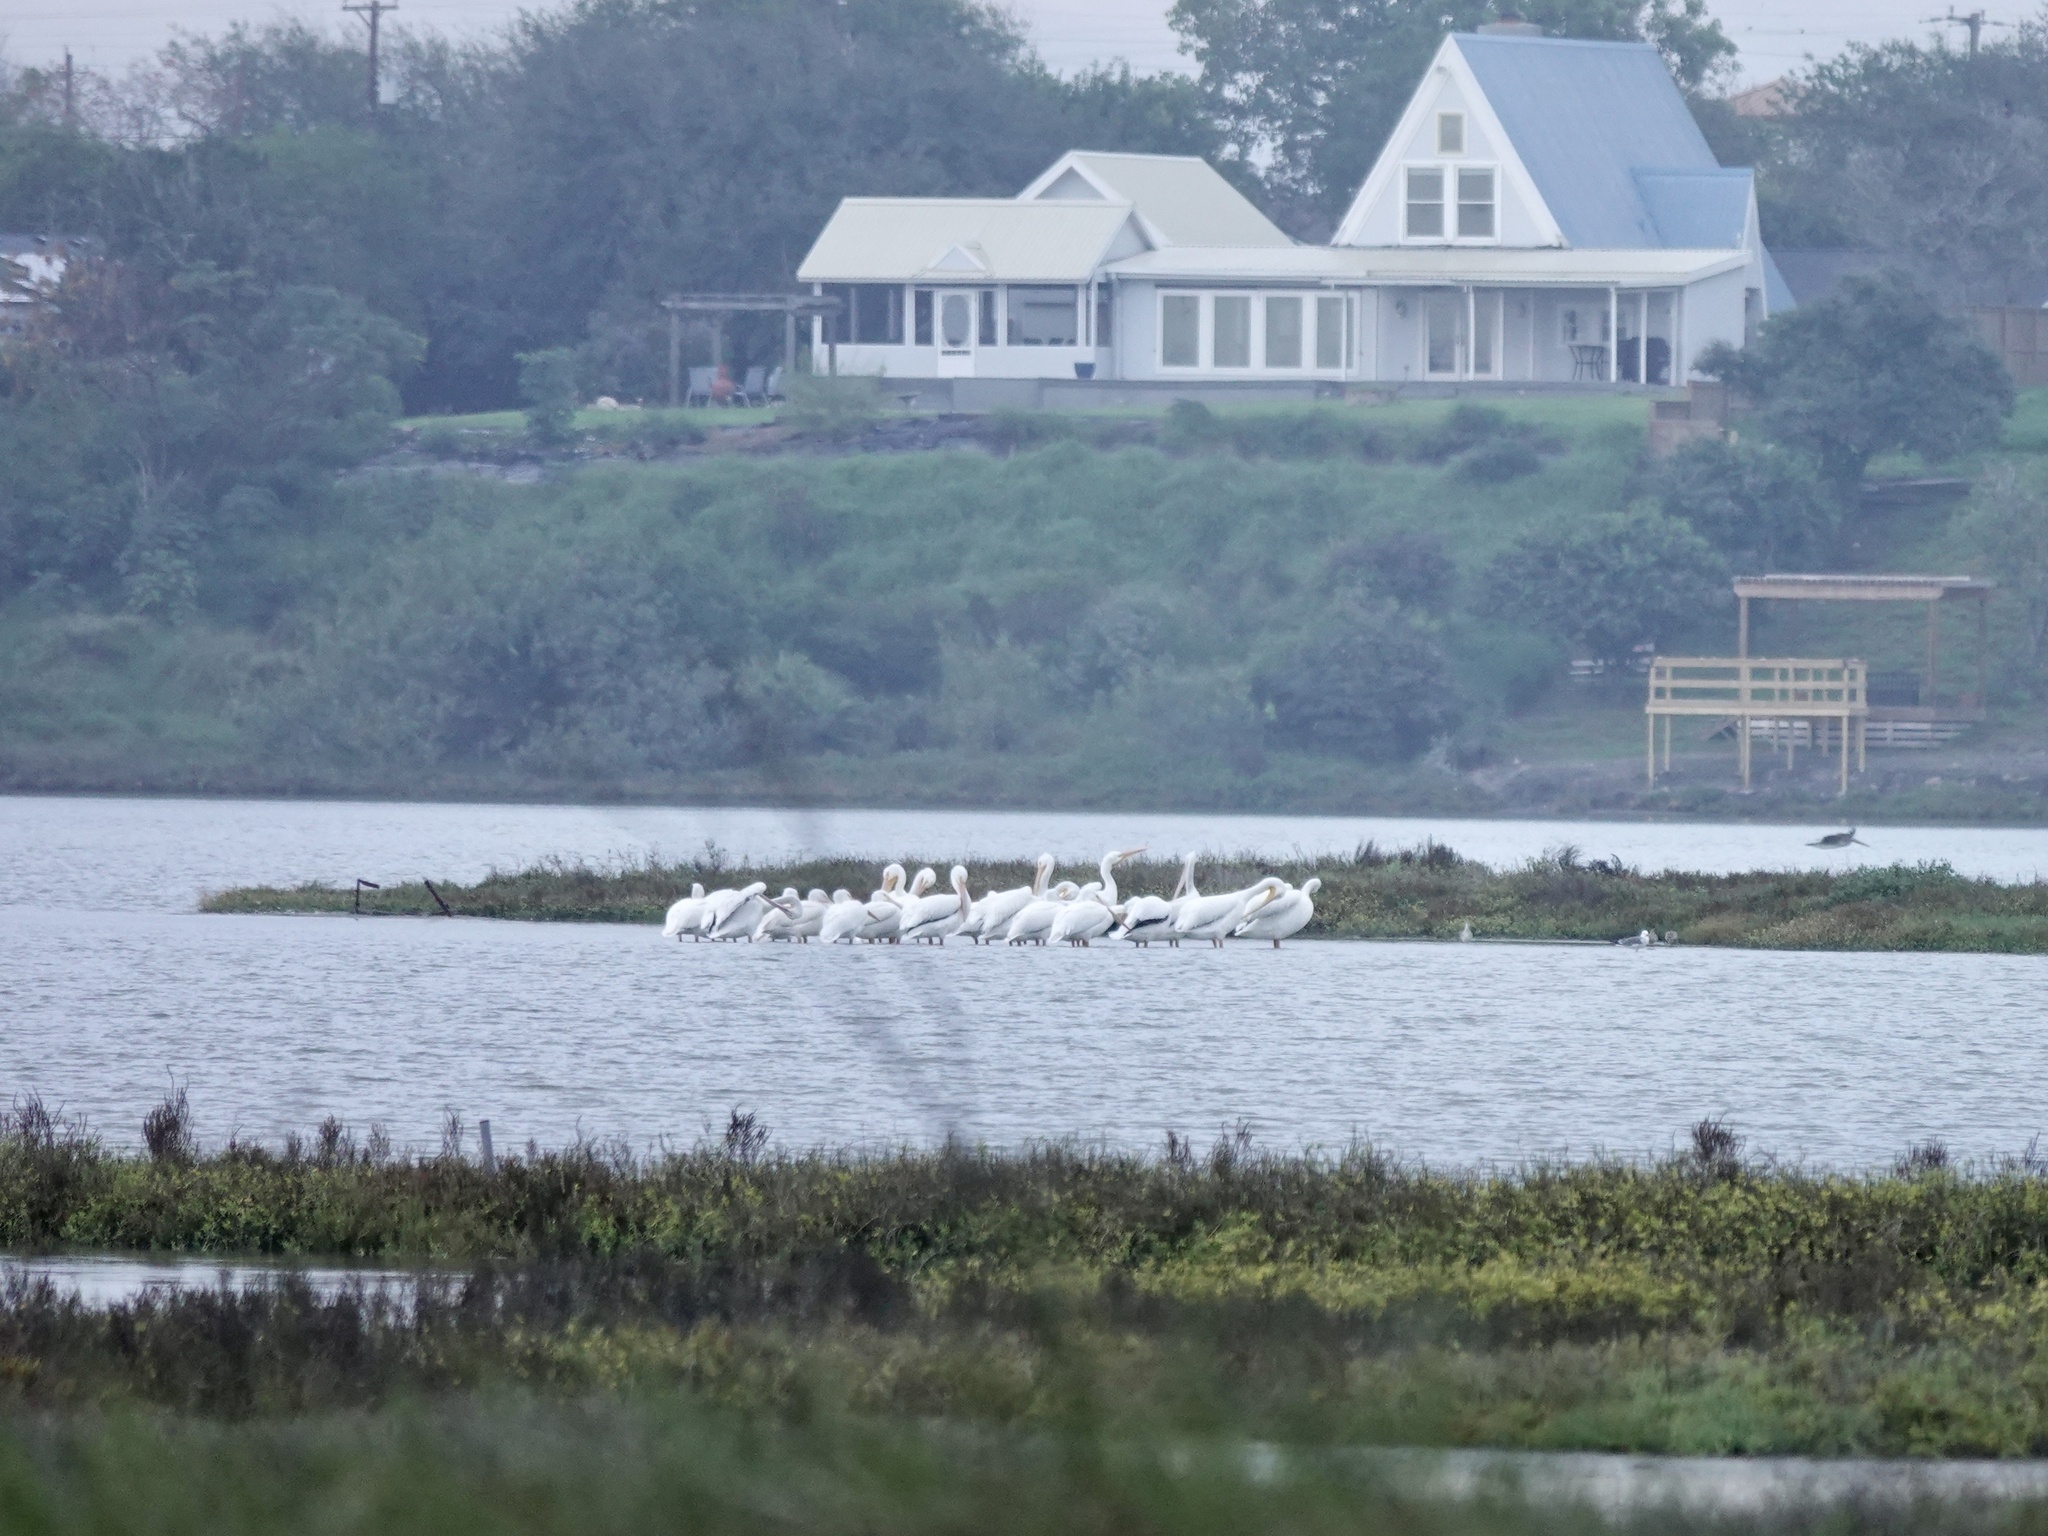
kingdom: Animalia
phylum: Chordata
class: Aves
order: Pelecaniformes
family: Pelecanidae
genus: Pelecanus
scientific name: Pelecanus erythrorhynchos
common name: American white pelican
